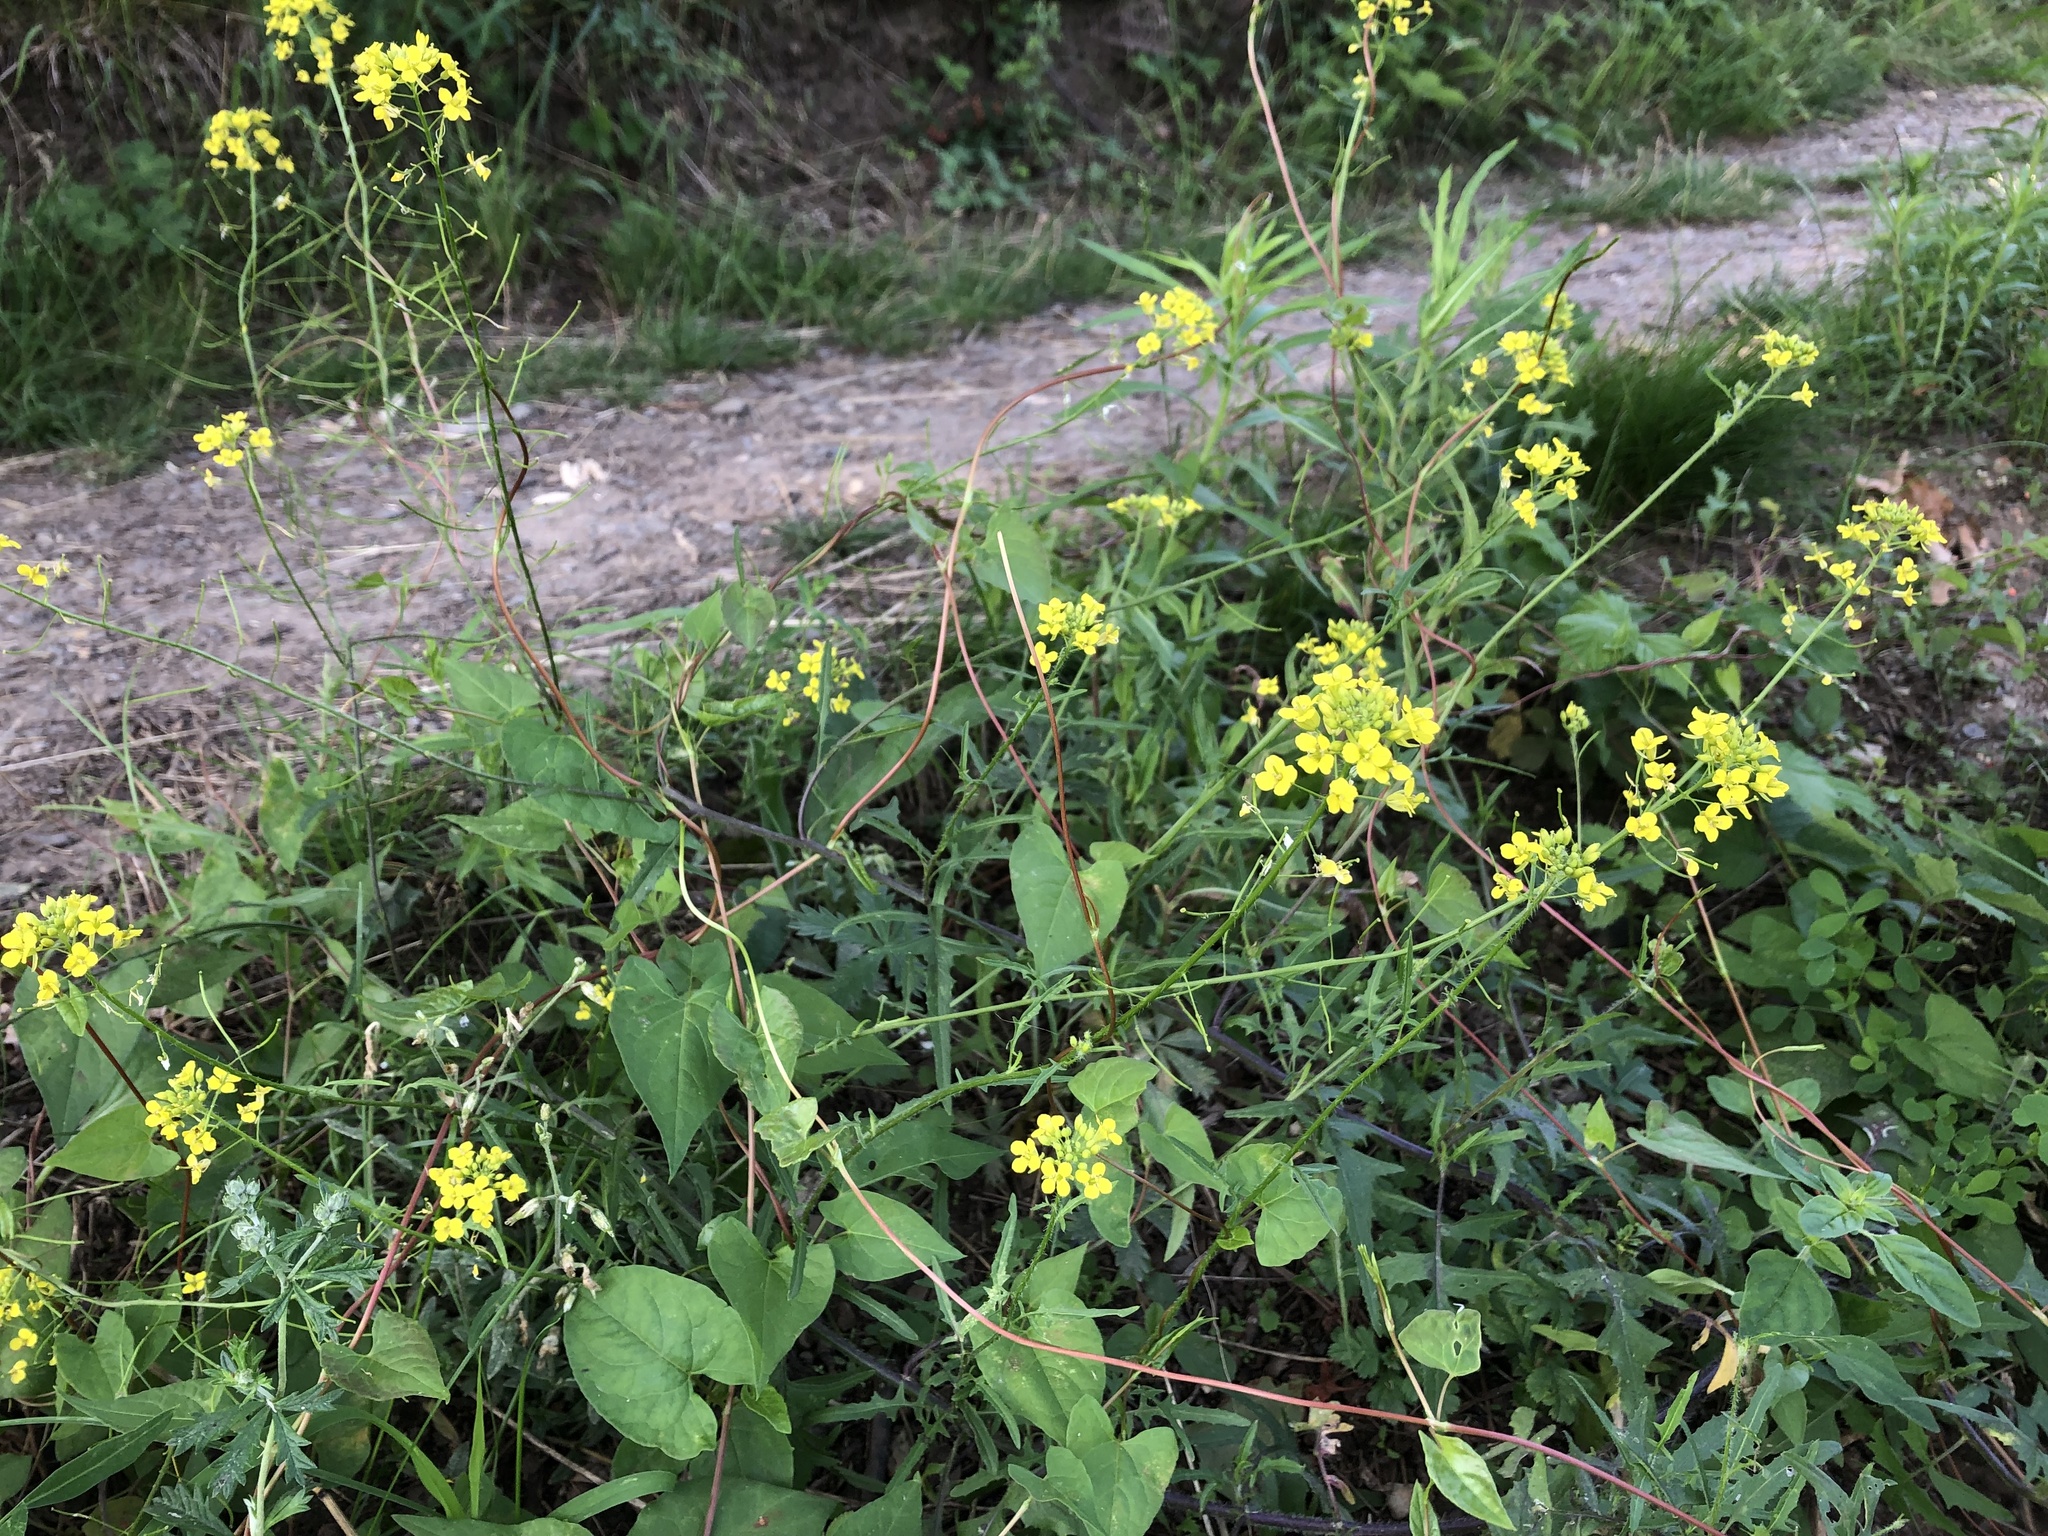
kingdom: Plantae
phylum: Tracheophyta
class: Magnoliopsida
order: Brassicales
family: Brassicaceae
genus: Sisymbrium
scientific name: Sisymbrium loeselii
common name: False london-rocket
